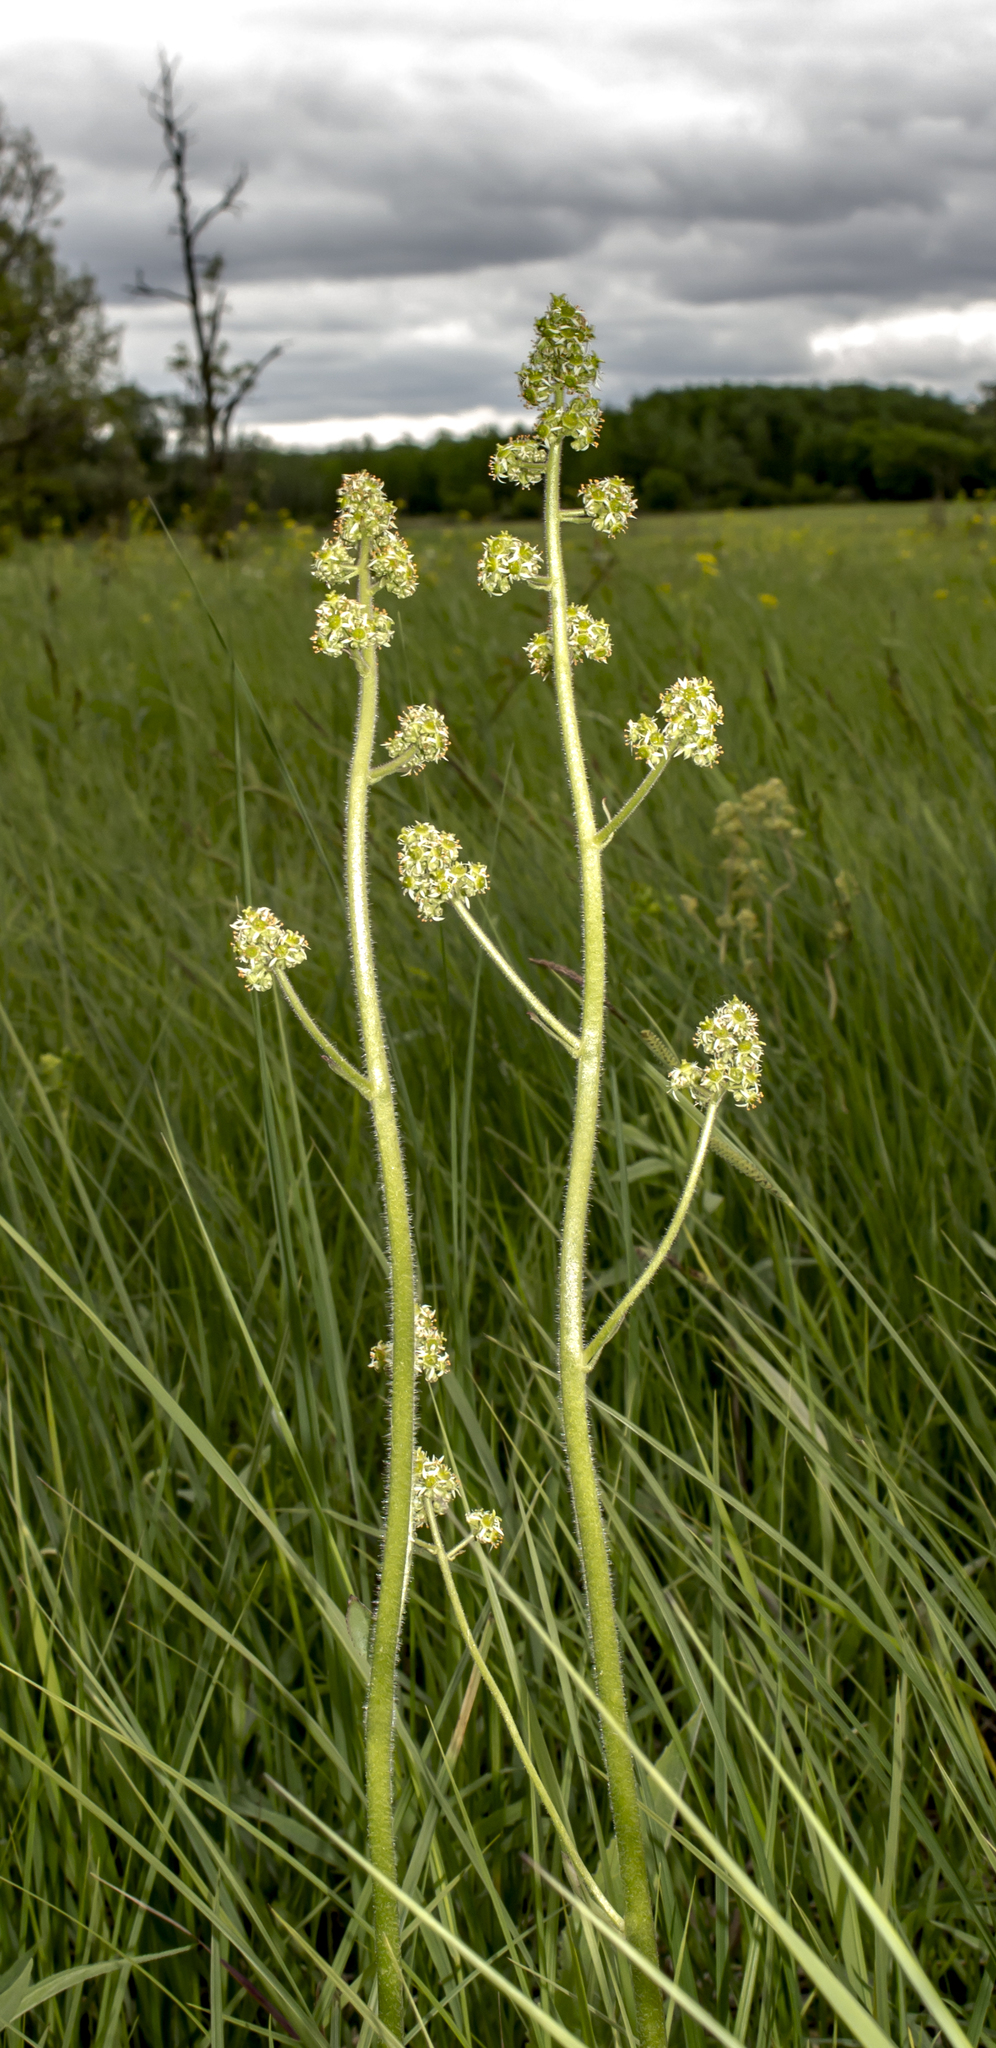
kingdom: Plantae
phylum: Tracheophyta
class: Magnoliopsida
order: Saxifragales
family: Saxifragaceae
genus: Micranthes
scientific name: Micranthes pensylvanica
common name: Marsh saxifrage
